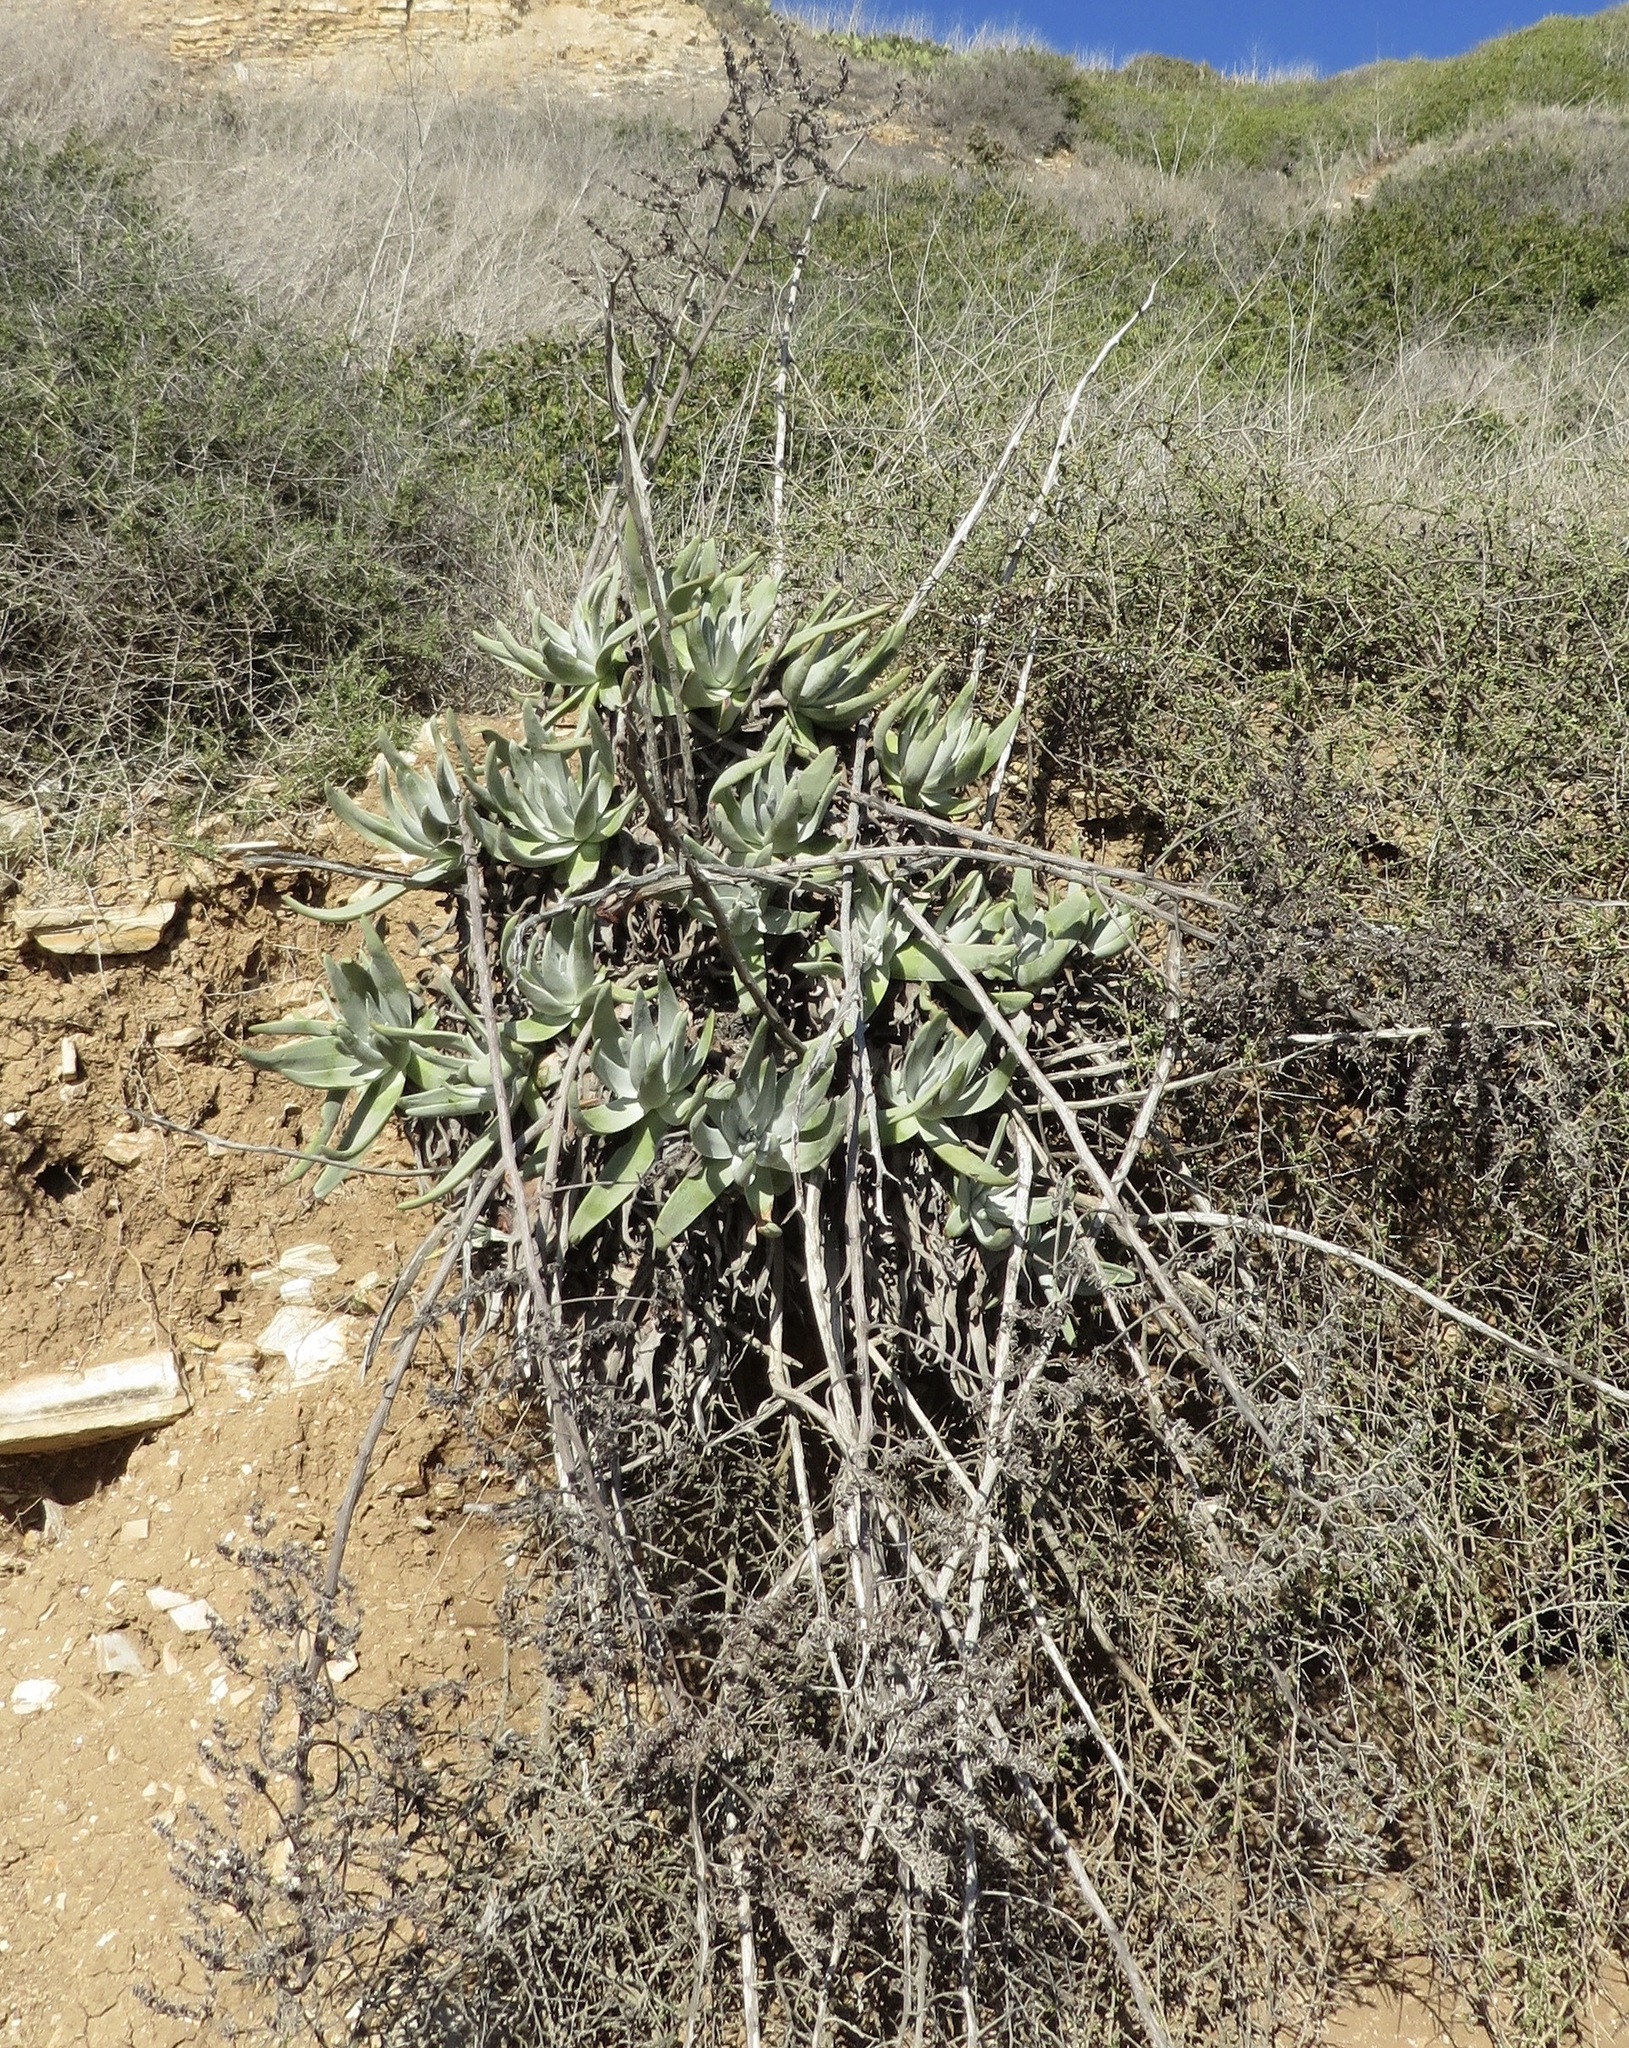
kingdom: Plantae
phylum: Tracheophyta
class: Magnoliopsida
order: Saxifragales
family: Crassulaceae
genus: Dudleya
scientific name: Dudleya virens
